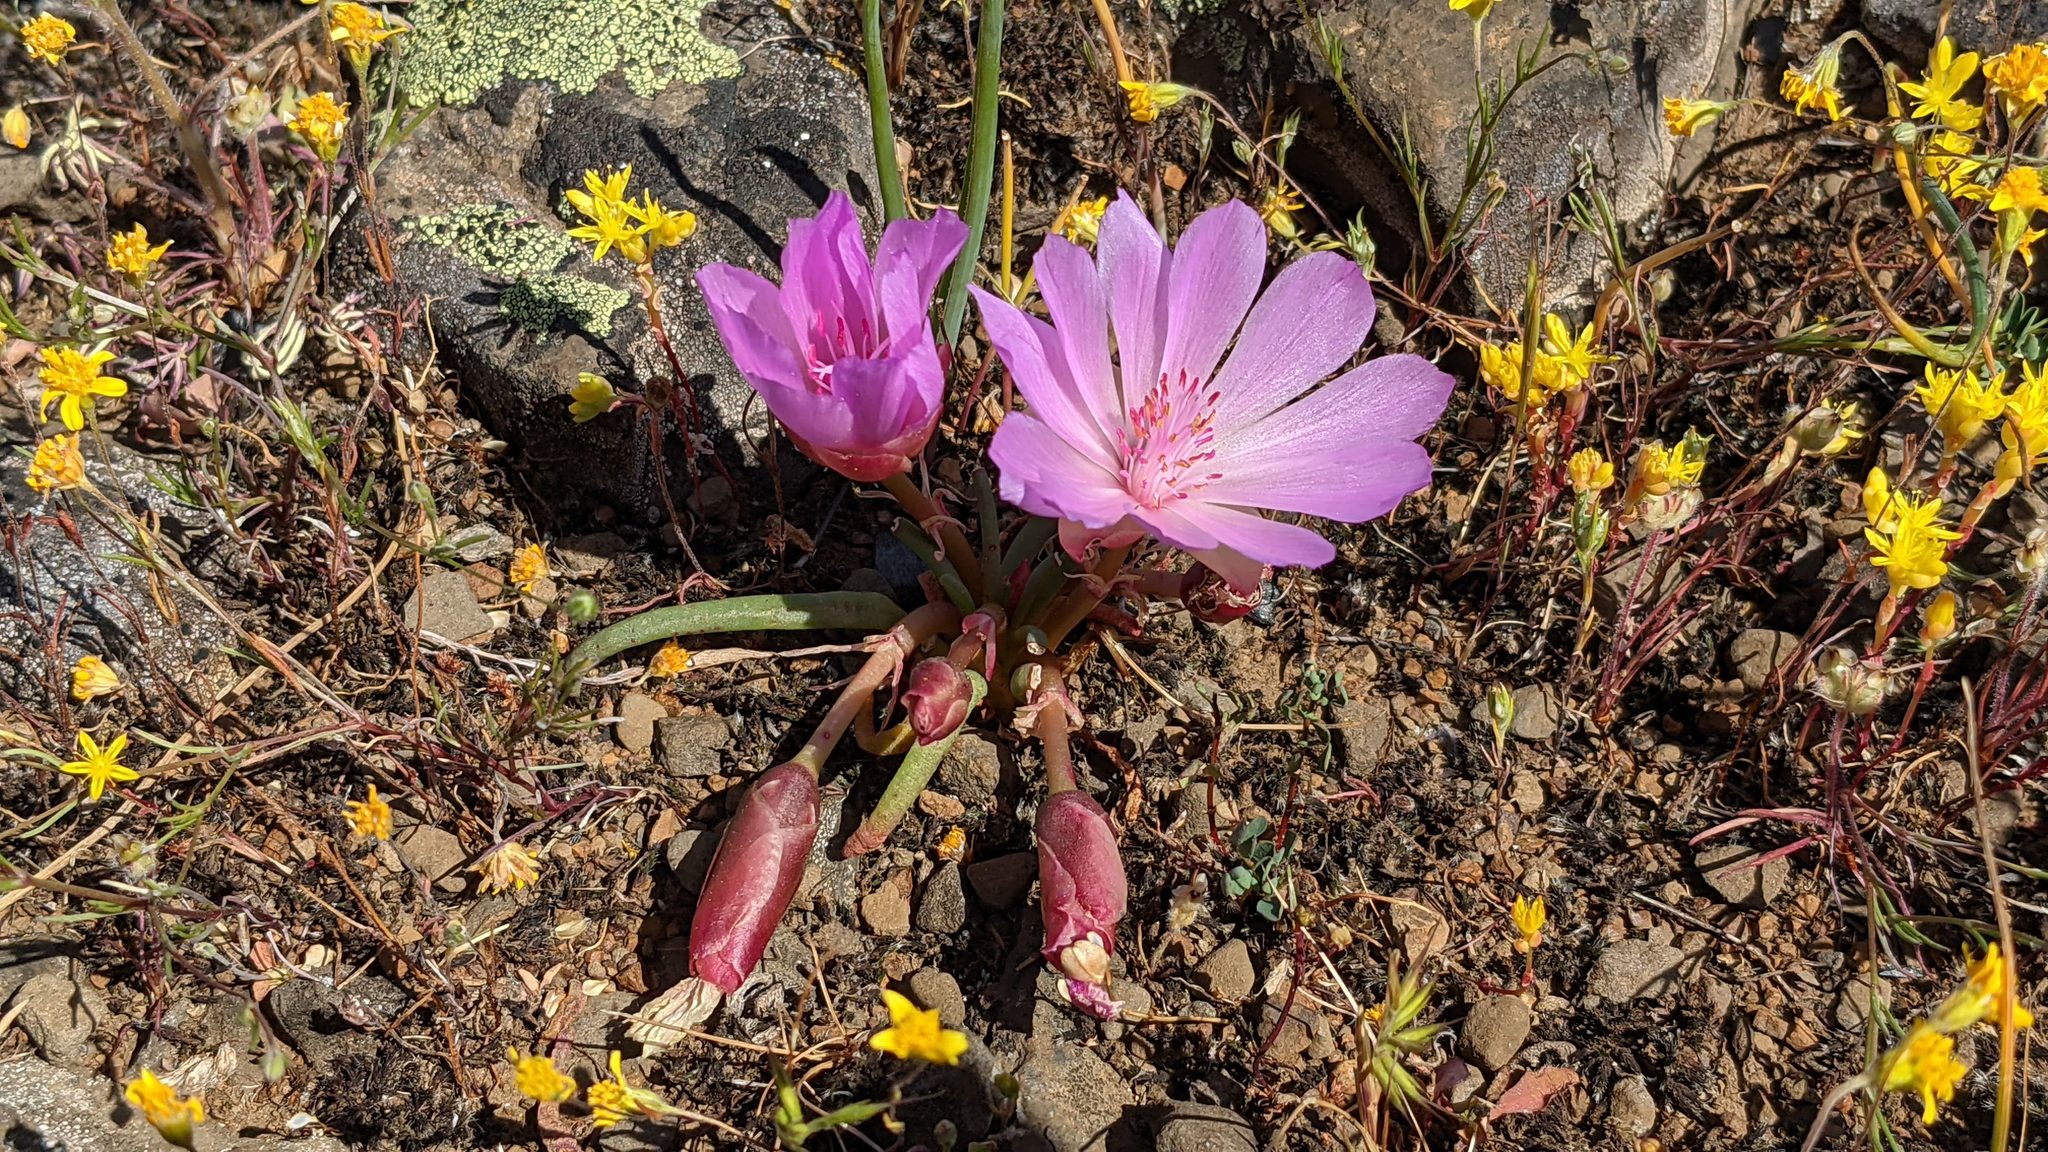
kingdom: Plantae
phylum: Tracheophyta
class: Magnoliopsida
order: Caryophyllales
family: Montiaceae
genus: Lewisia
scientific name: Lewisia rediviva
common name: Bitter-root
